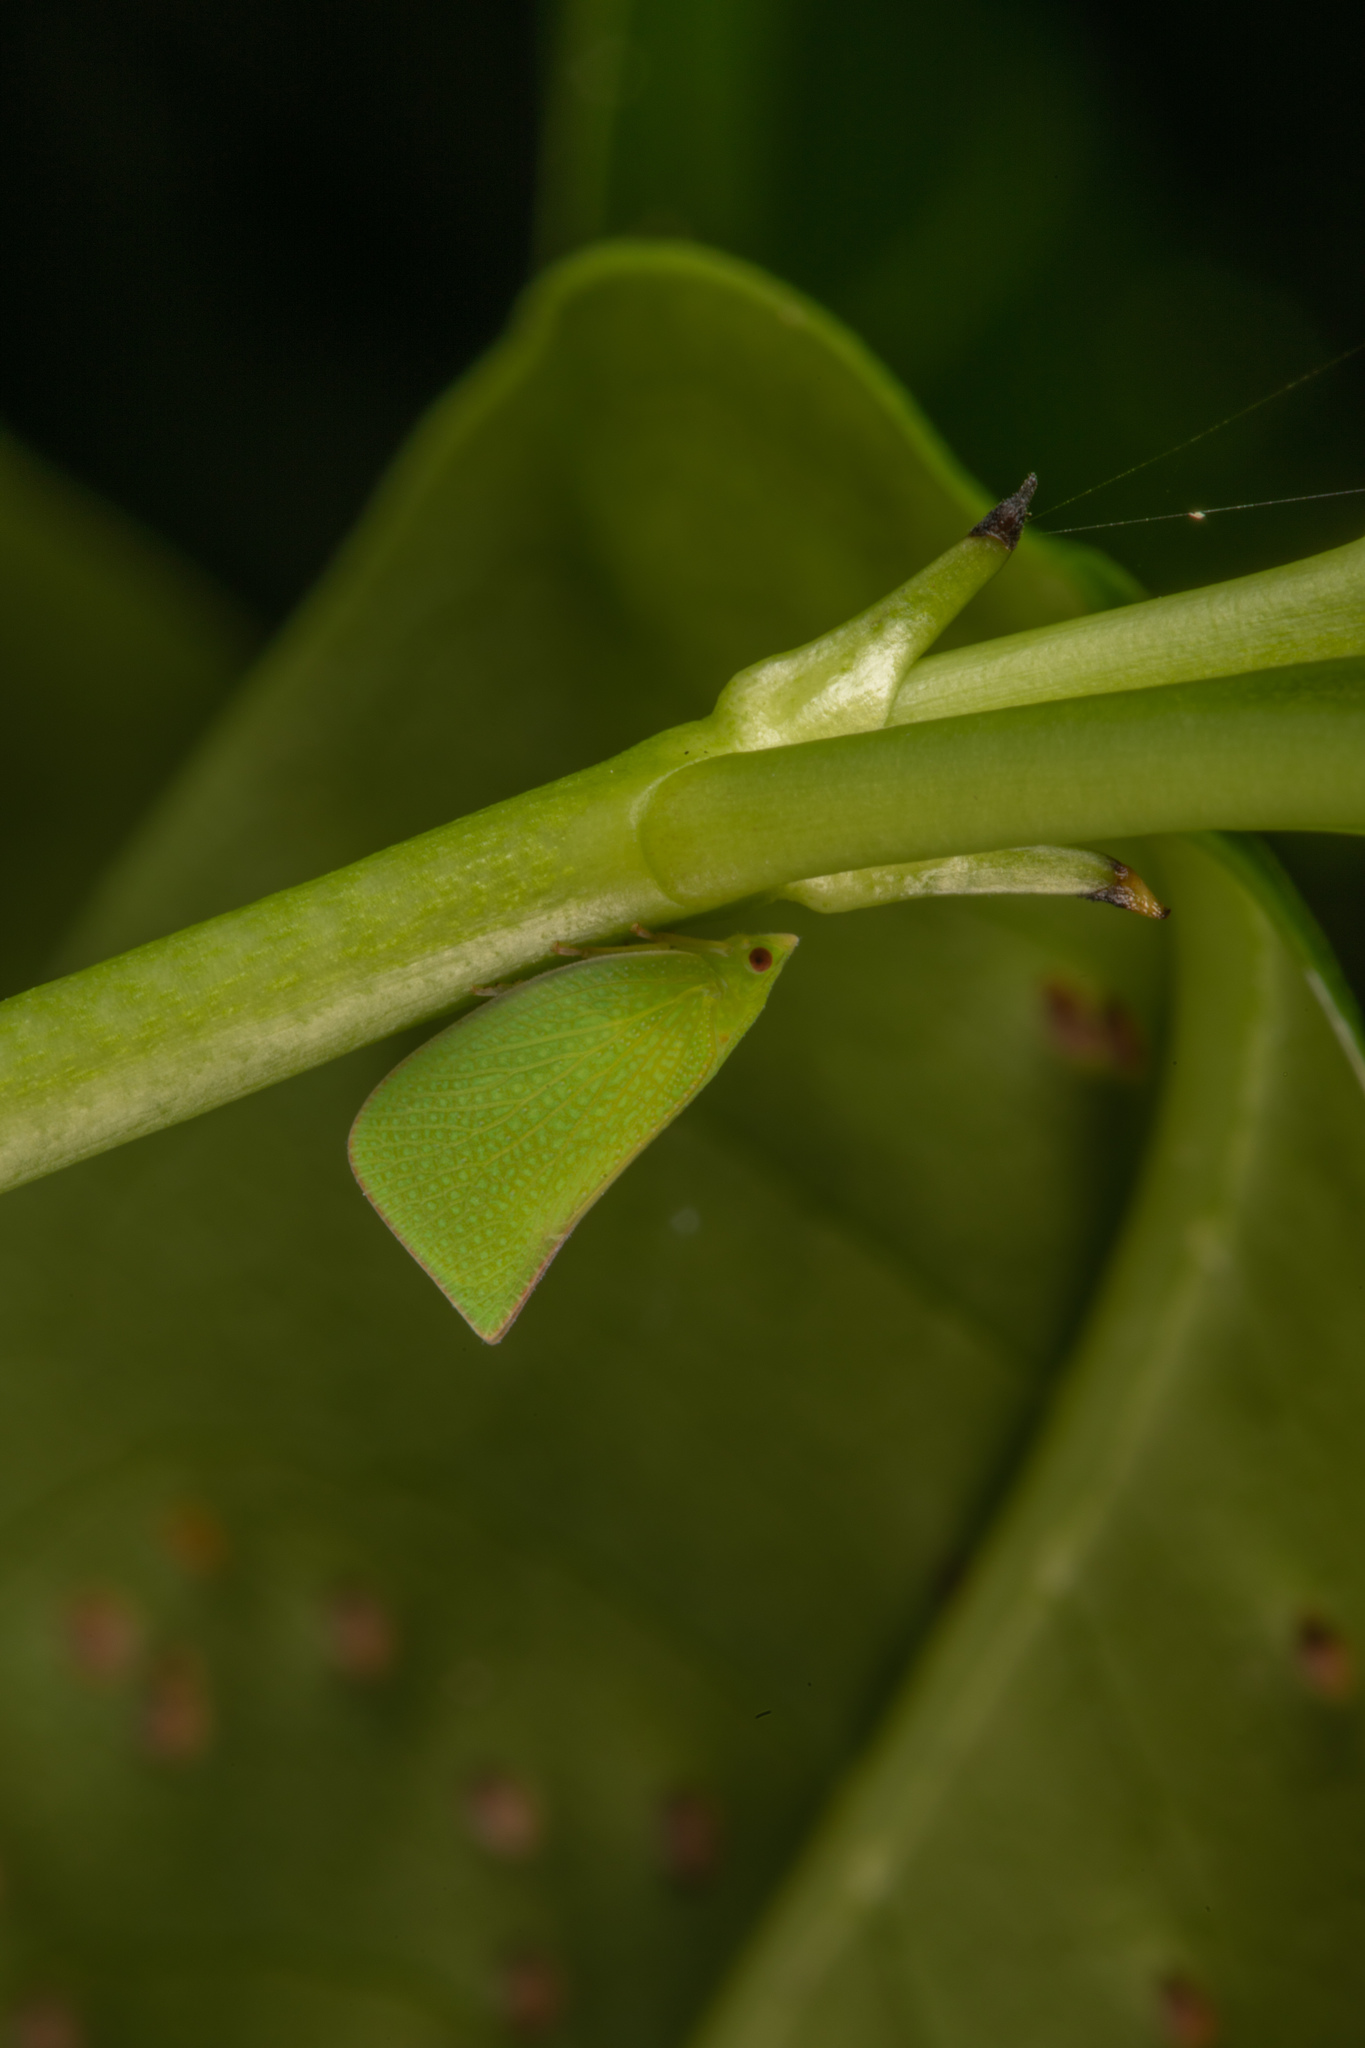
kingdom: Animalia
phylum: Arthropoda
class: Insecta
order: Hemiptera
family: Flatidae
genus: Siphanta
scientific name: Siphanta acuta
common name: Torpedo bug
